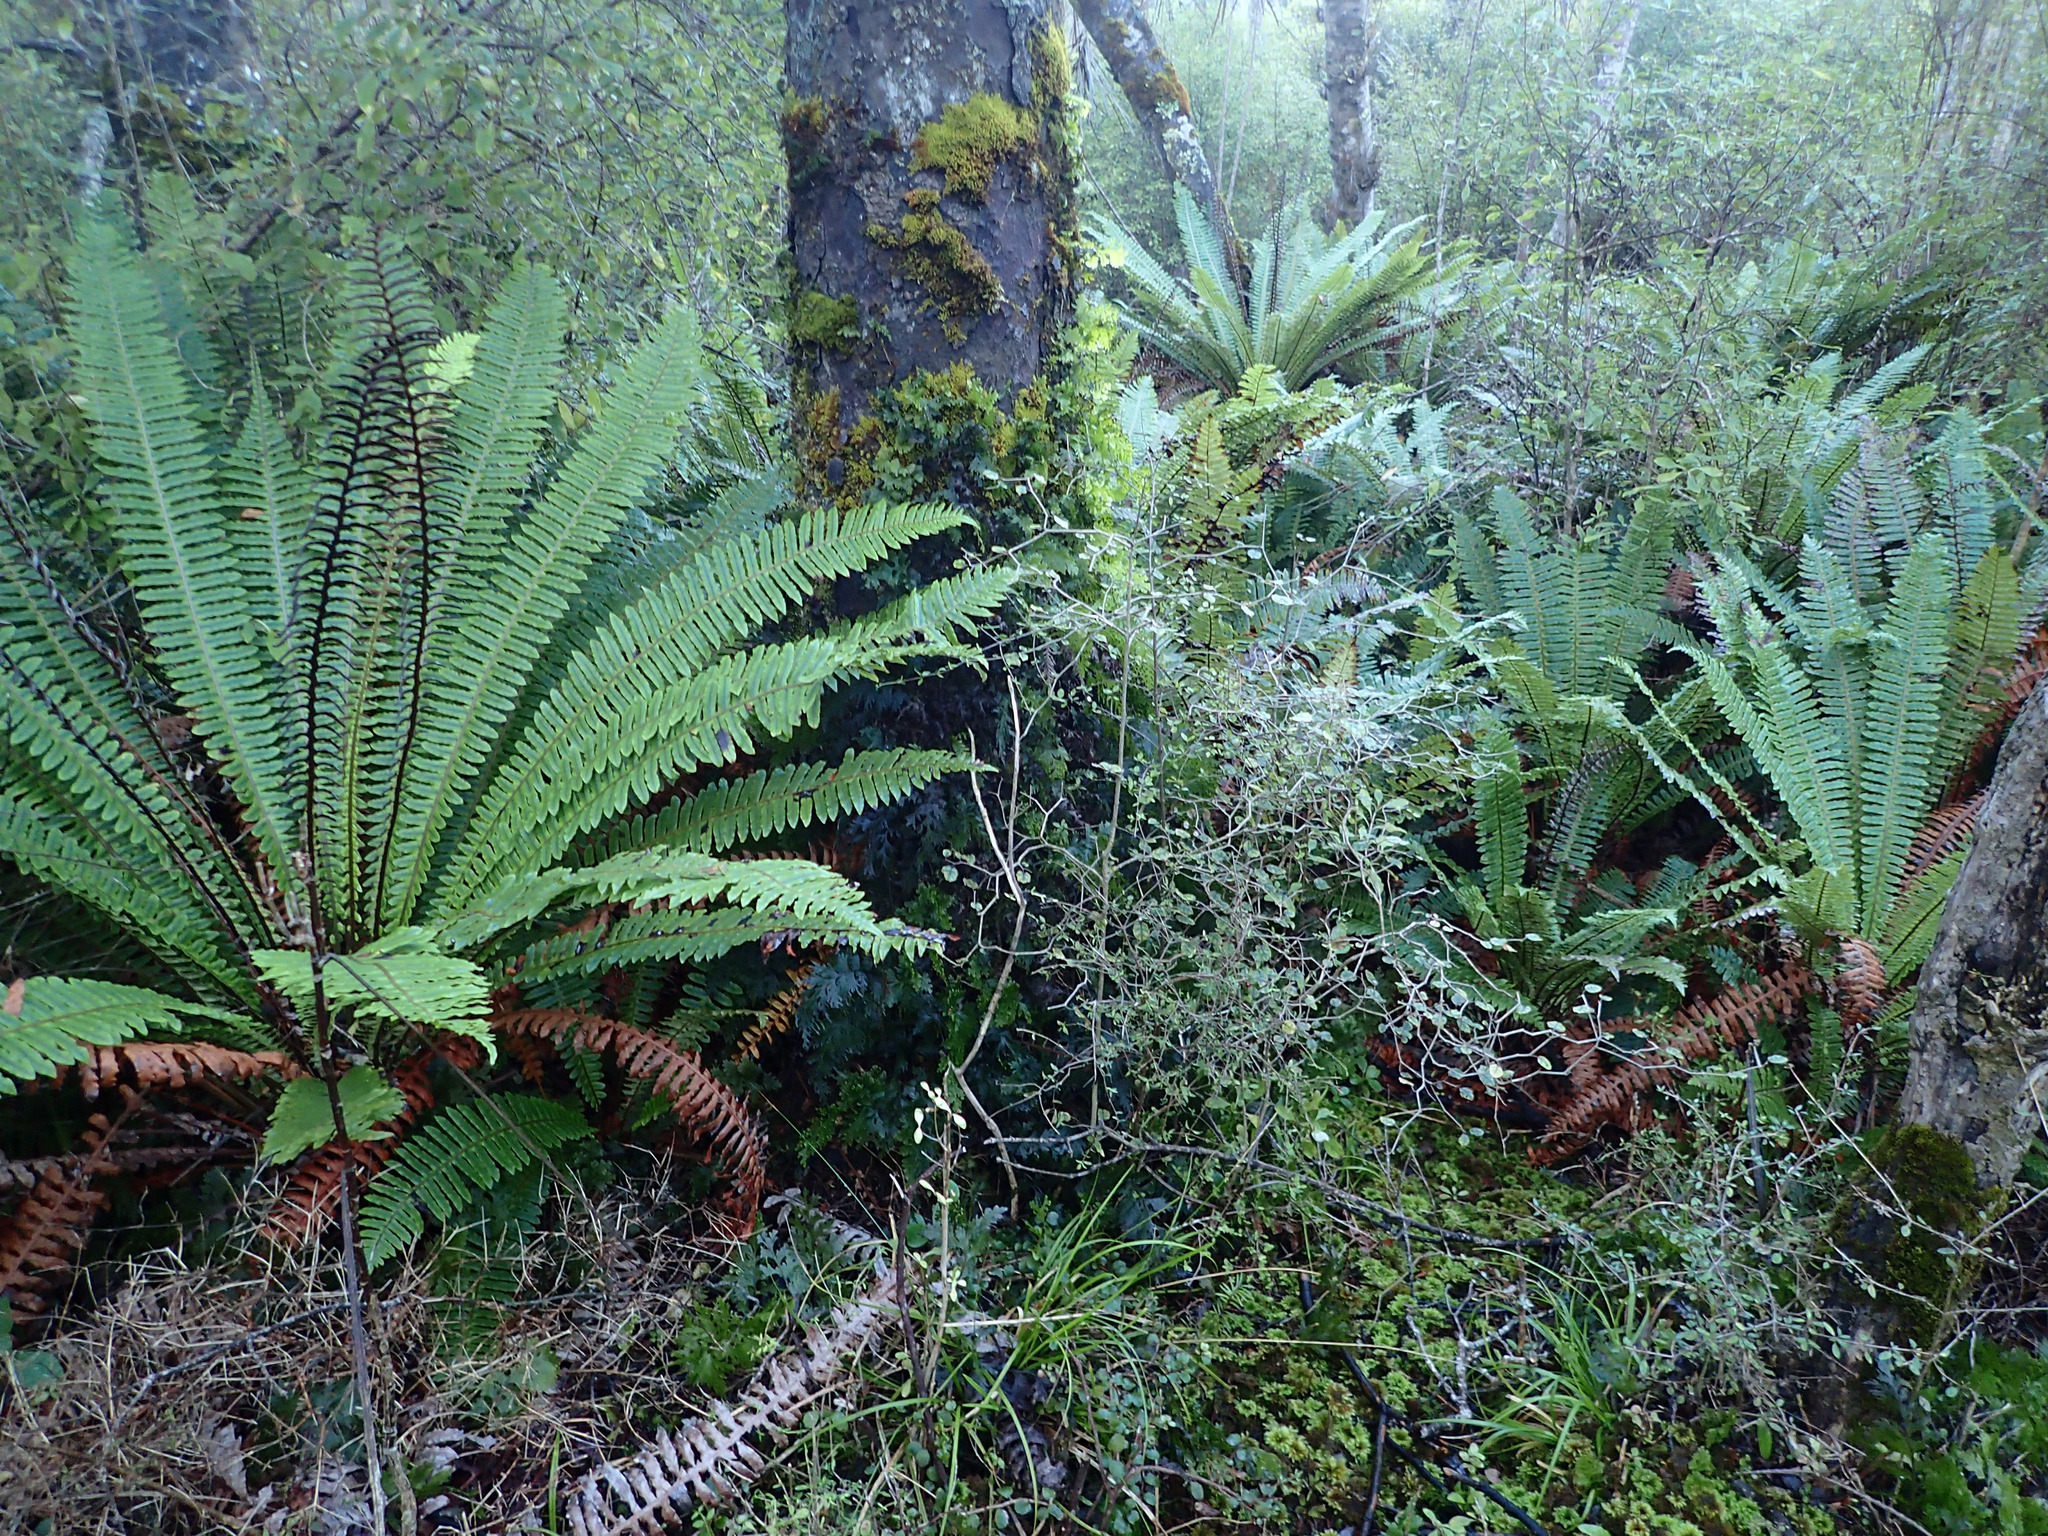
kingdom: Plantae
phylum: Tracheophyta
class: Polypodiopsida
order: Polypodiales
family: Blechnaceae
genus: Lomaria
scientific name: Lomaria discolor
